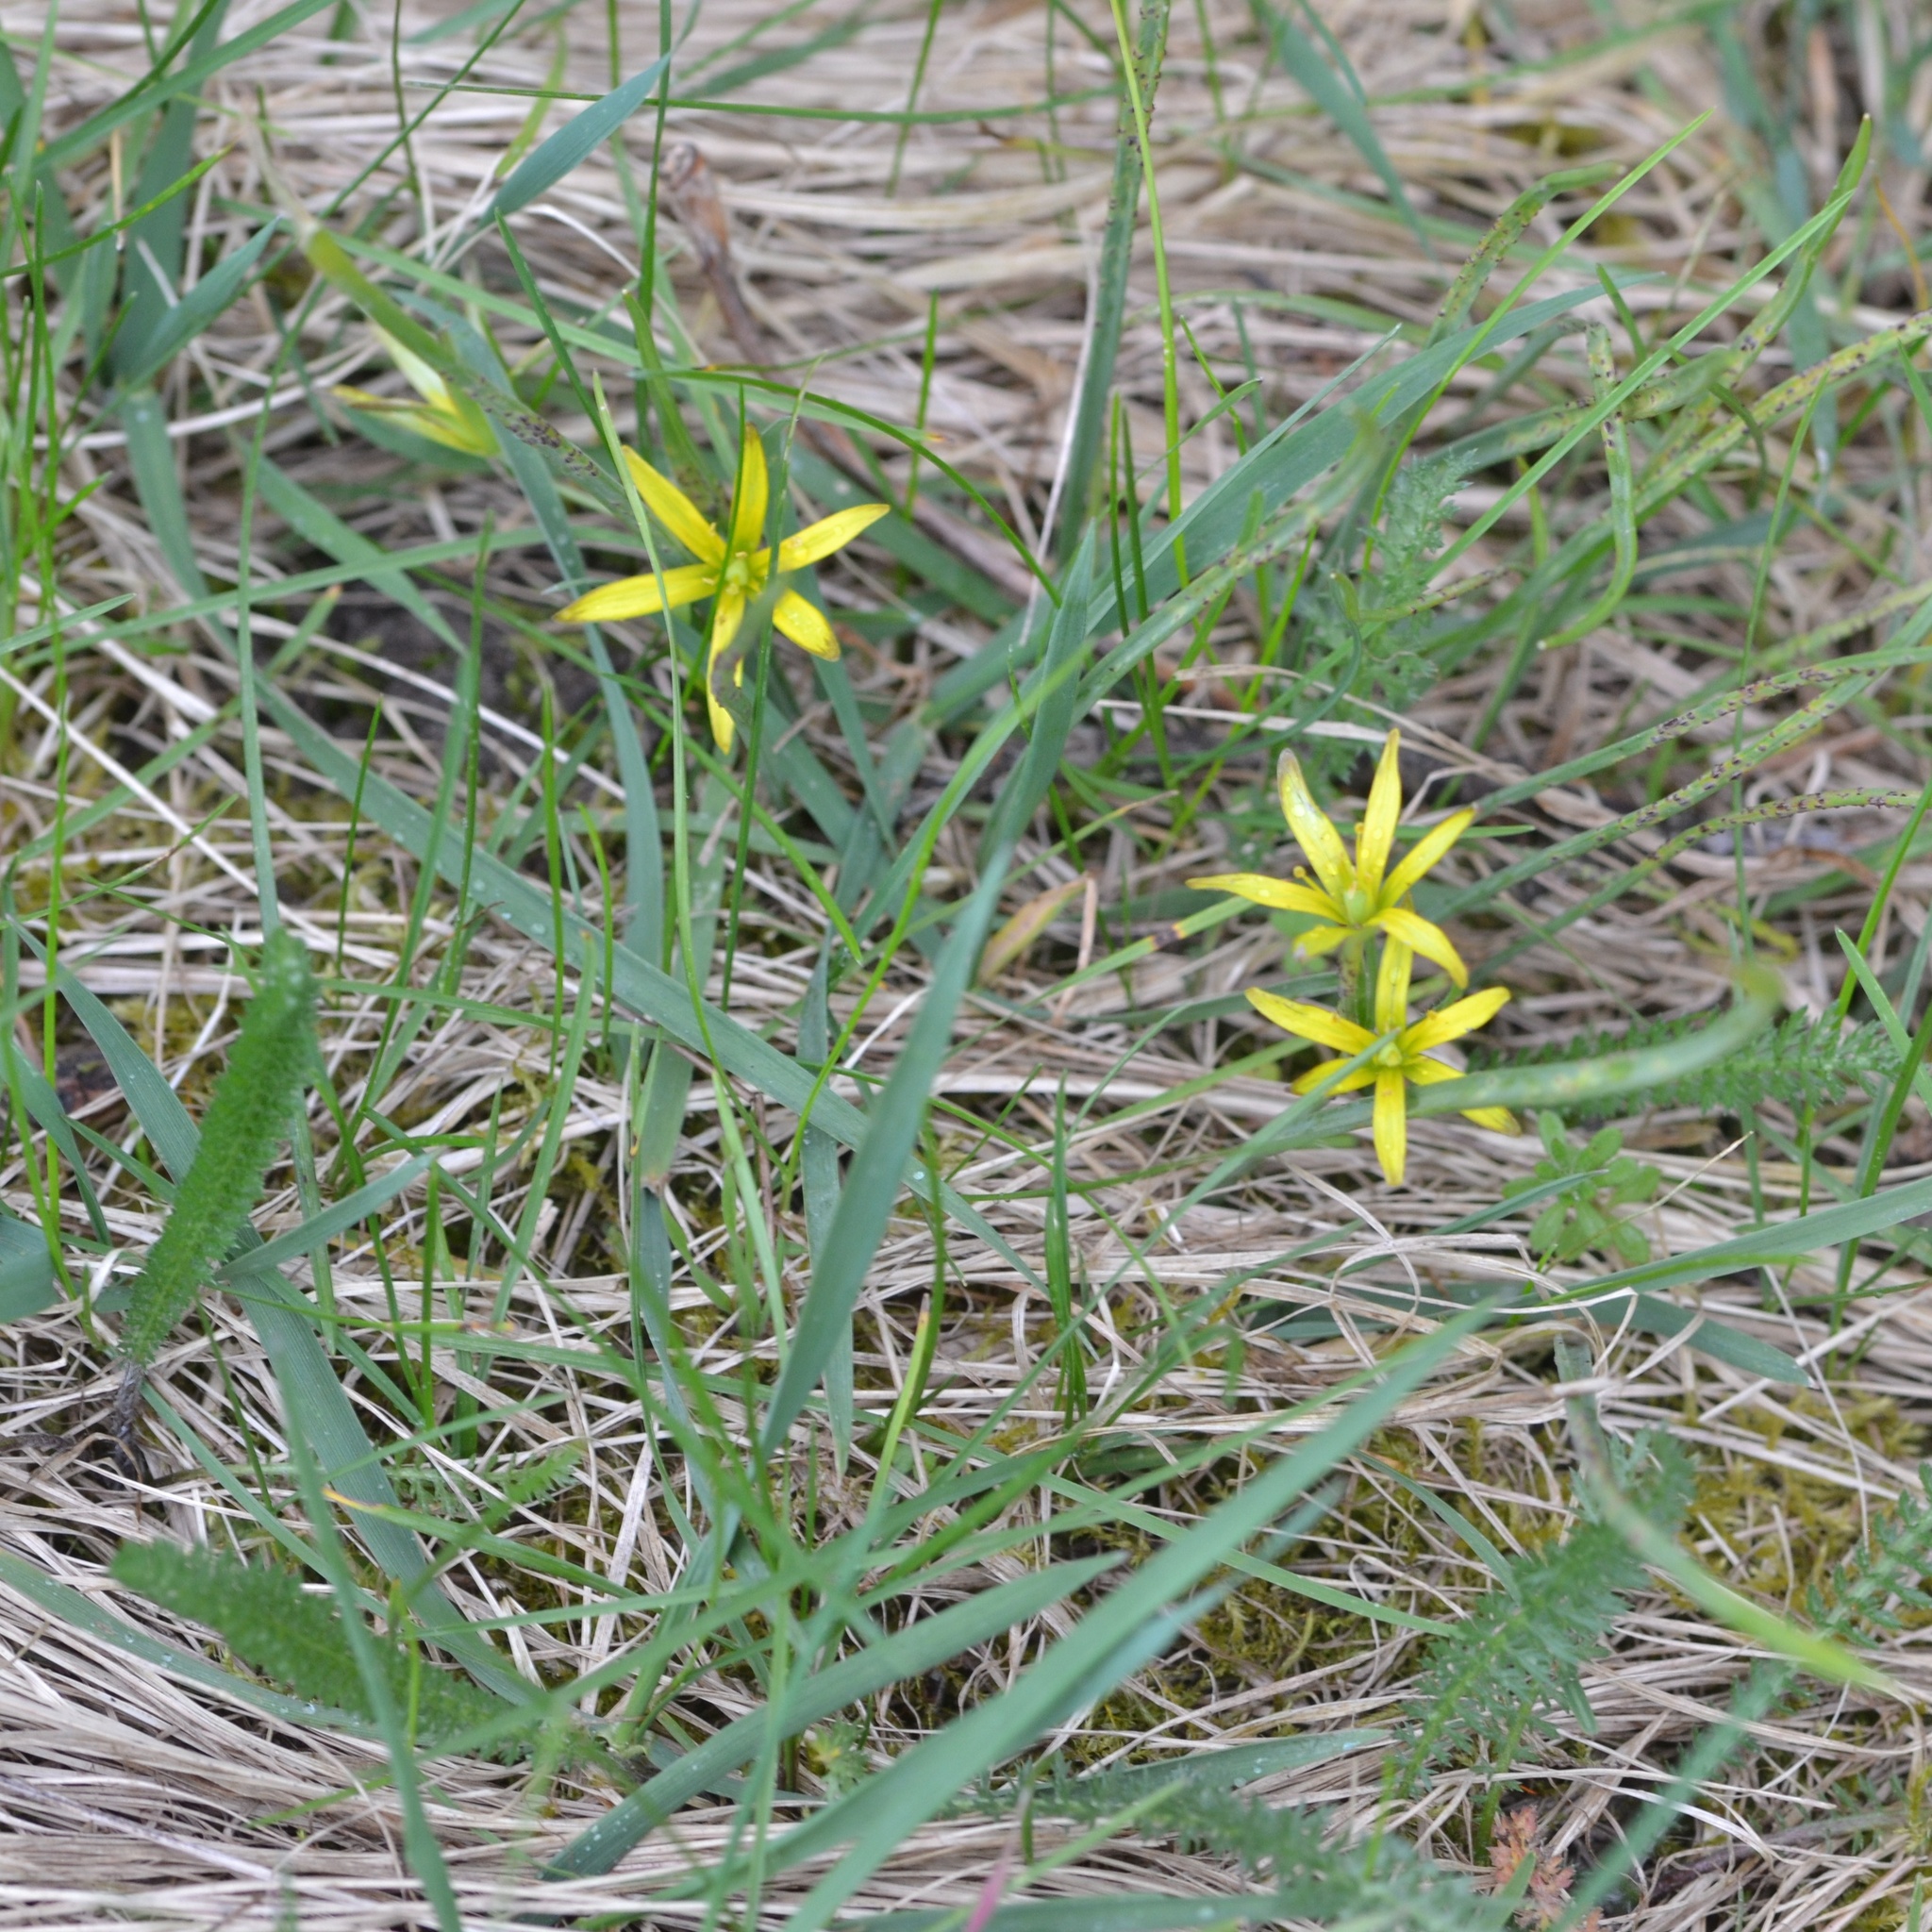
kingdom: Plantae
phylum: Tracheophyta
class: Liliopsida
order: Liliales
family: Liliaceae
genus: Gagea
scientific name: Gagea pratensis
